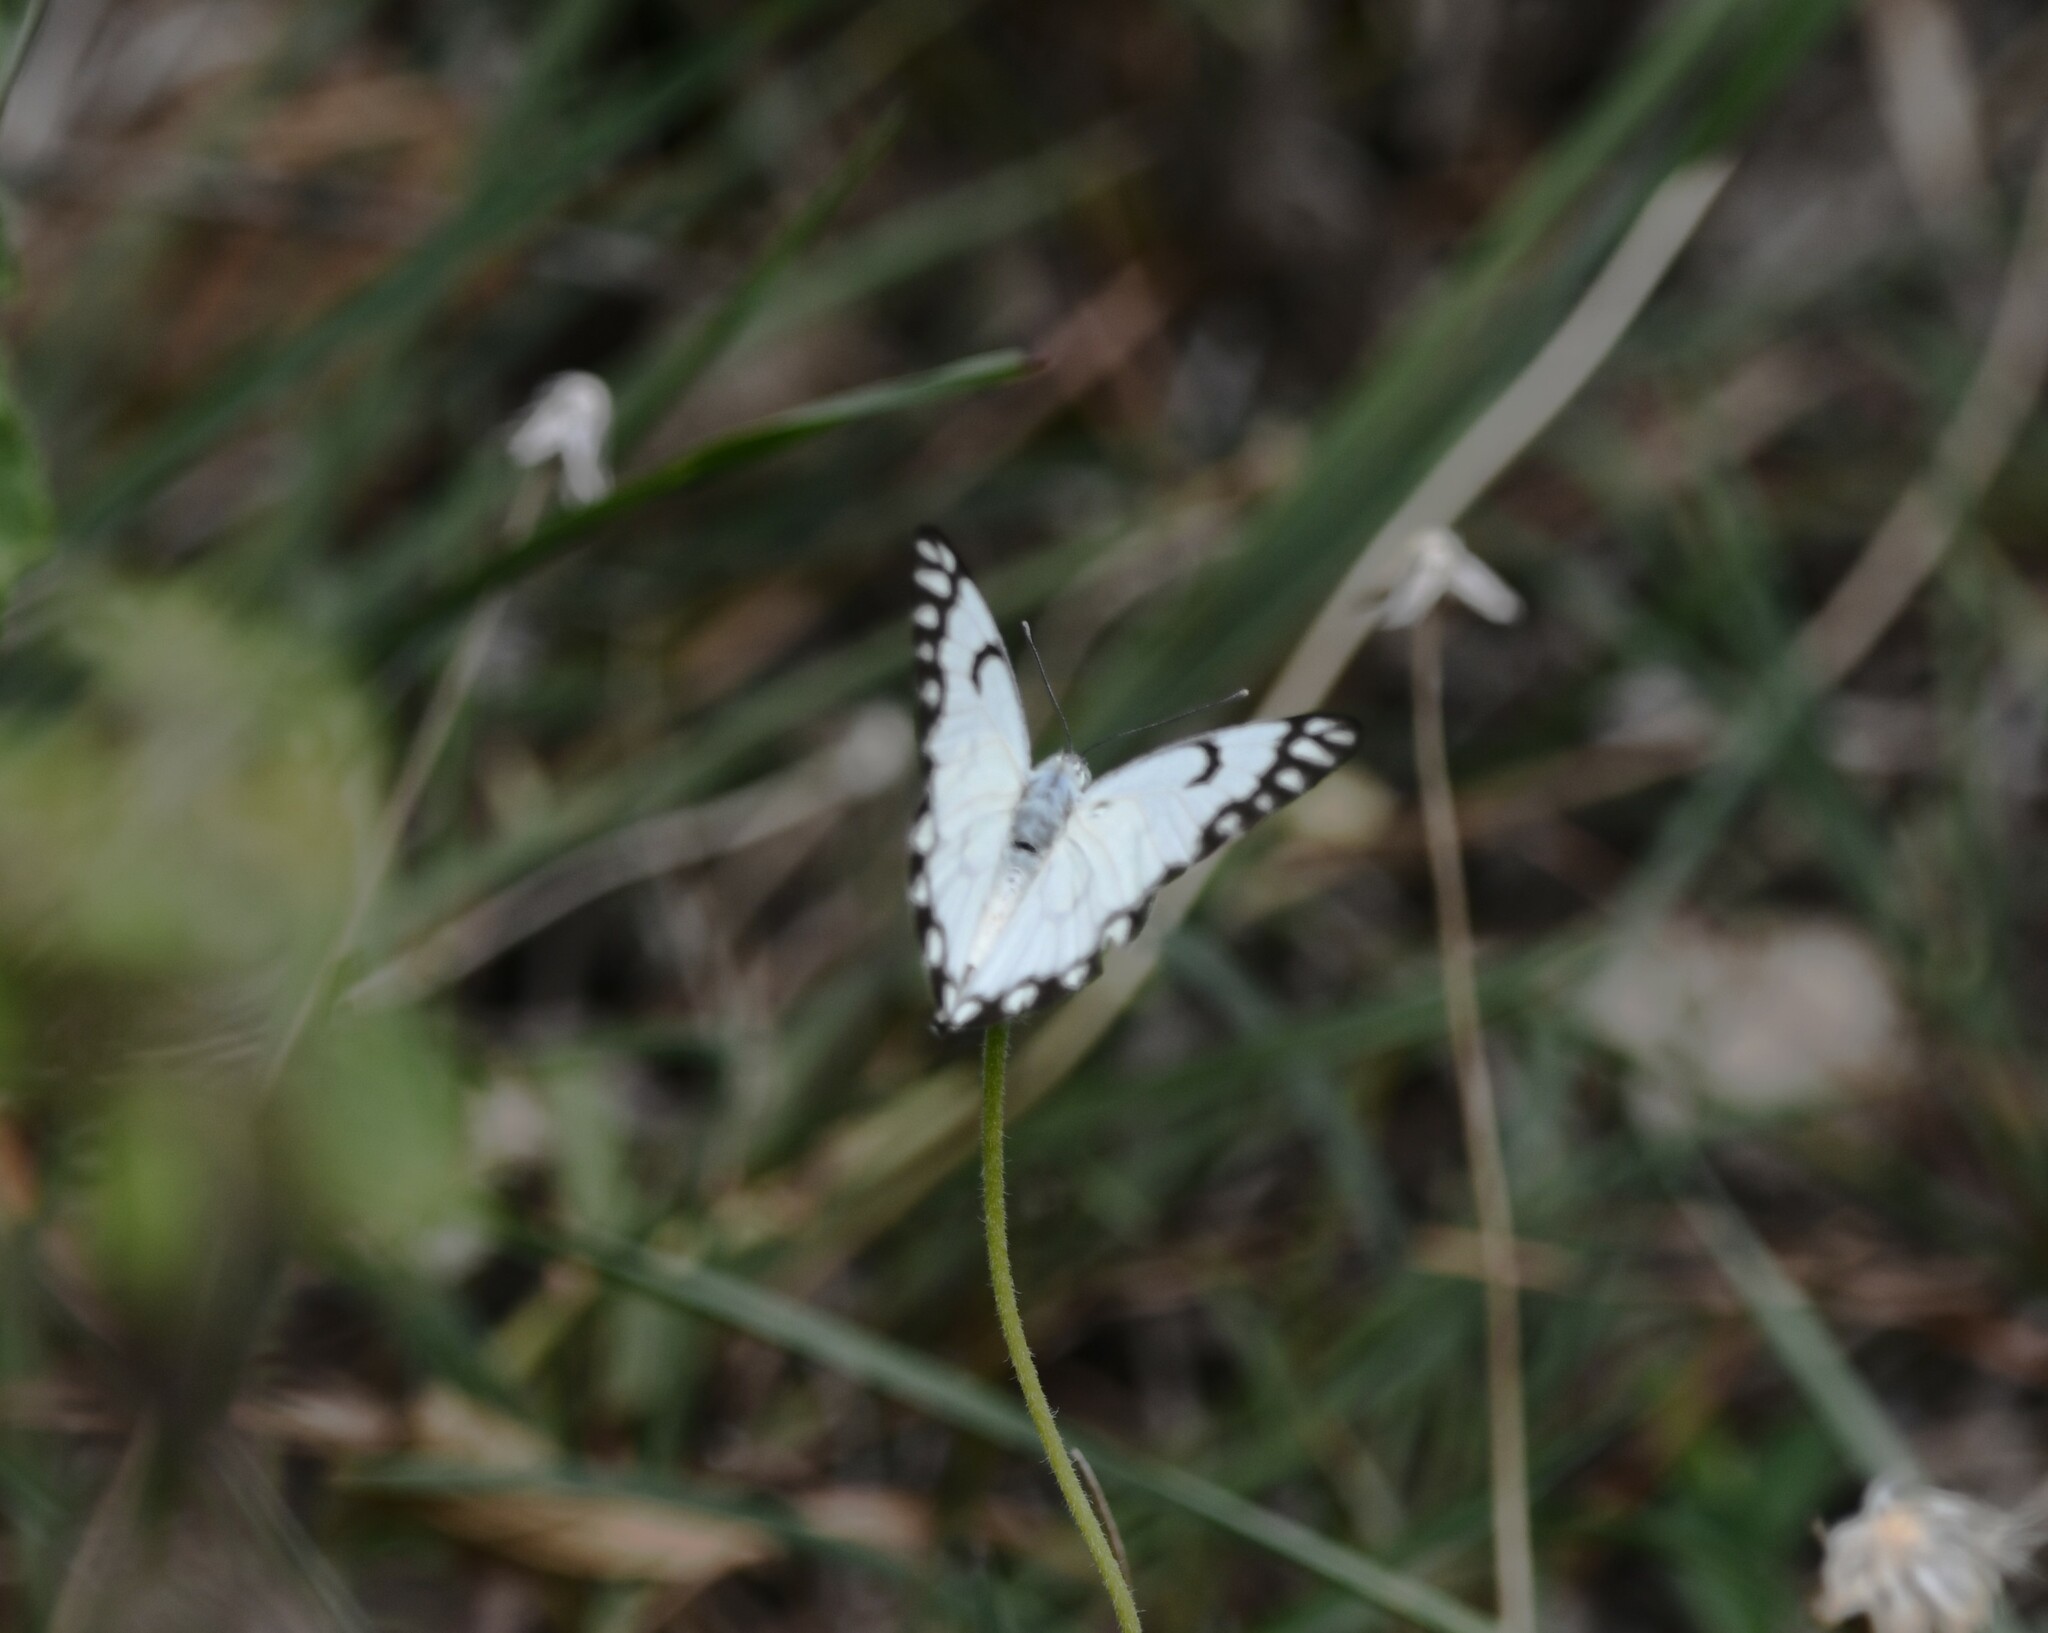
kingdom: Animalia
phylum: Arthropoda
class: Insecta
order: Lepidoptera
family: Pieridae
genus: Belenois
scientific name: Belenois aurota
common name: Brown-veined white
